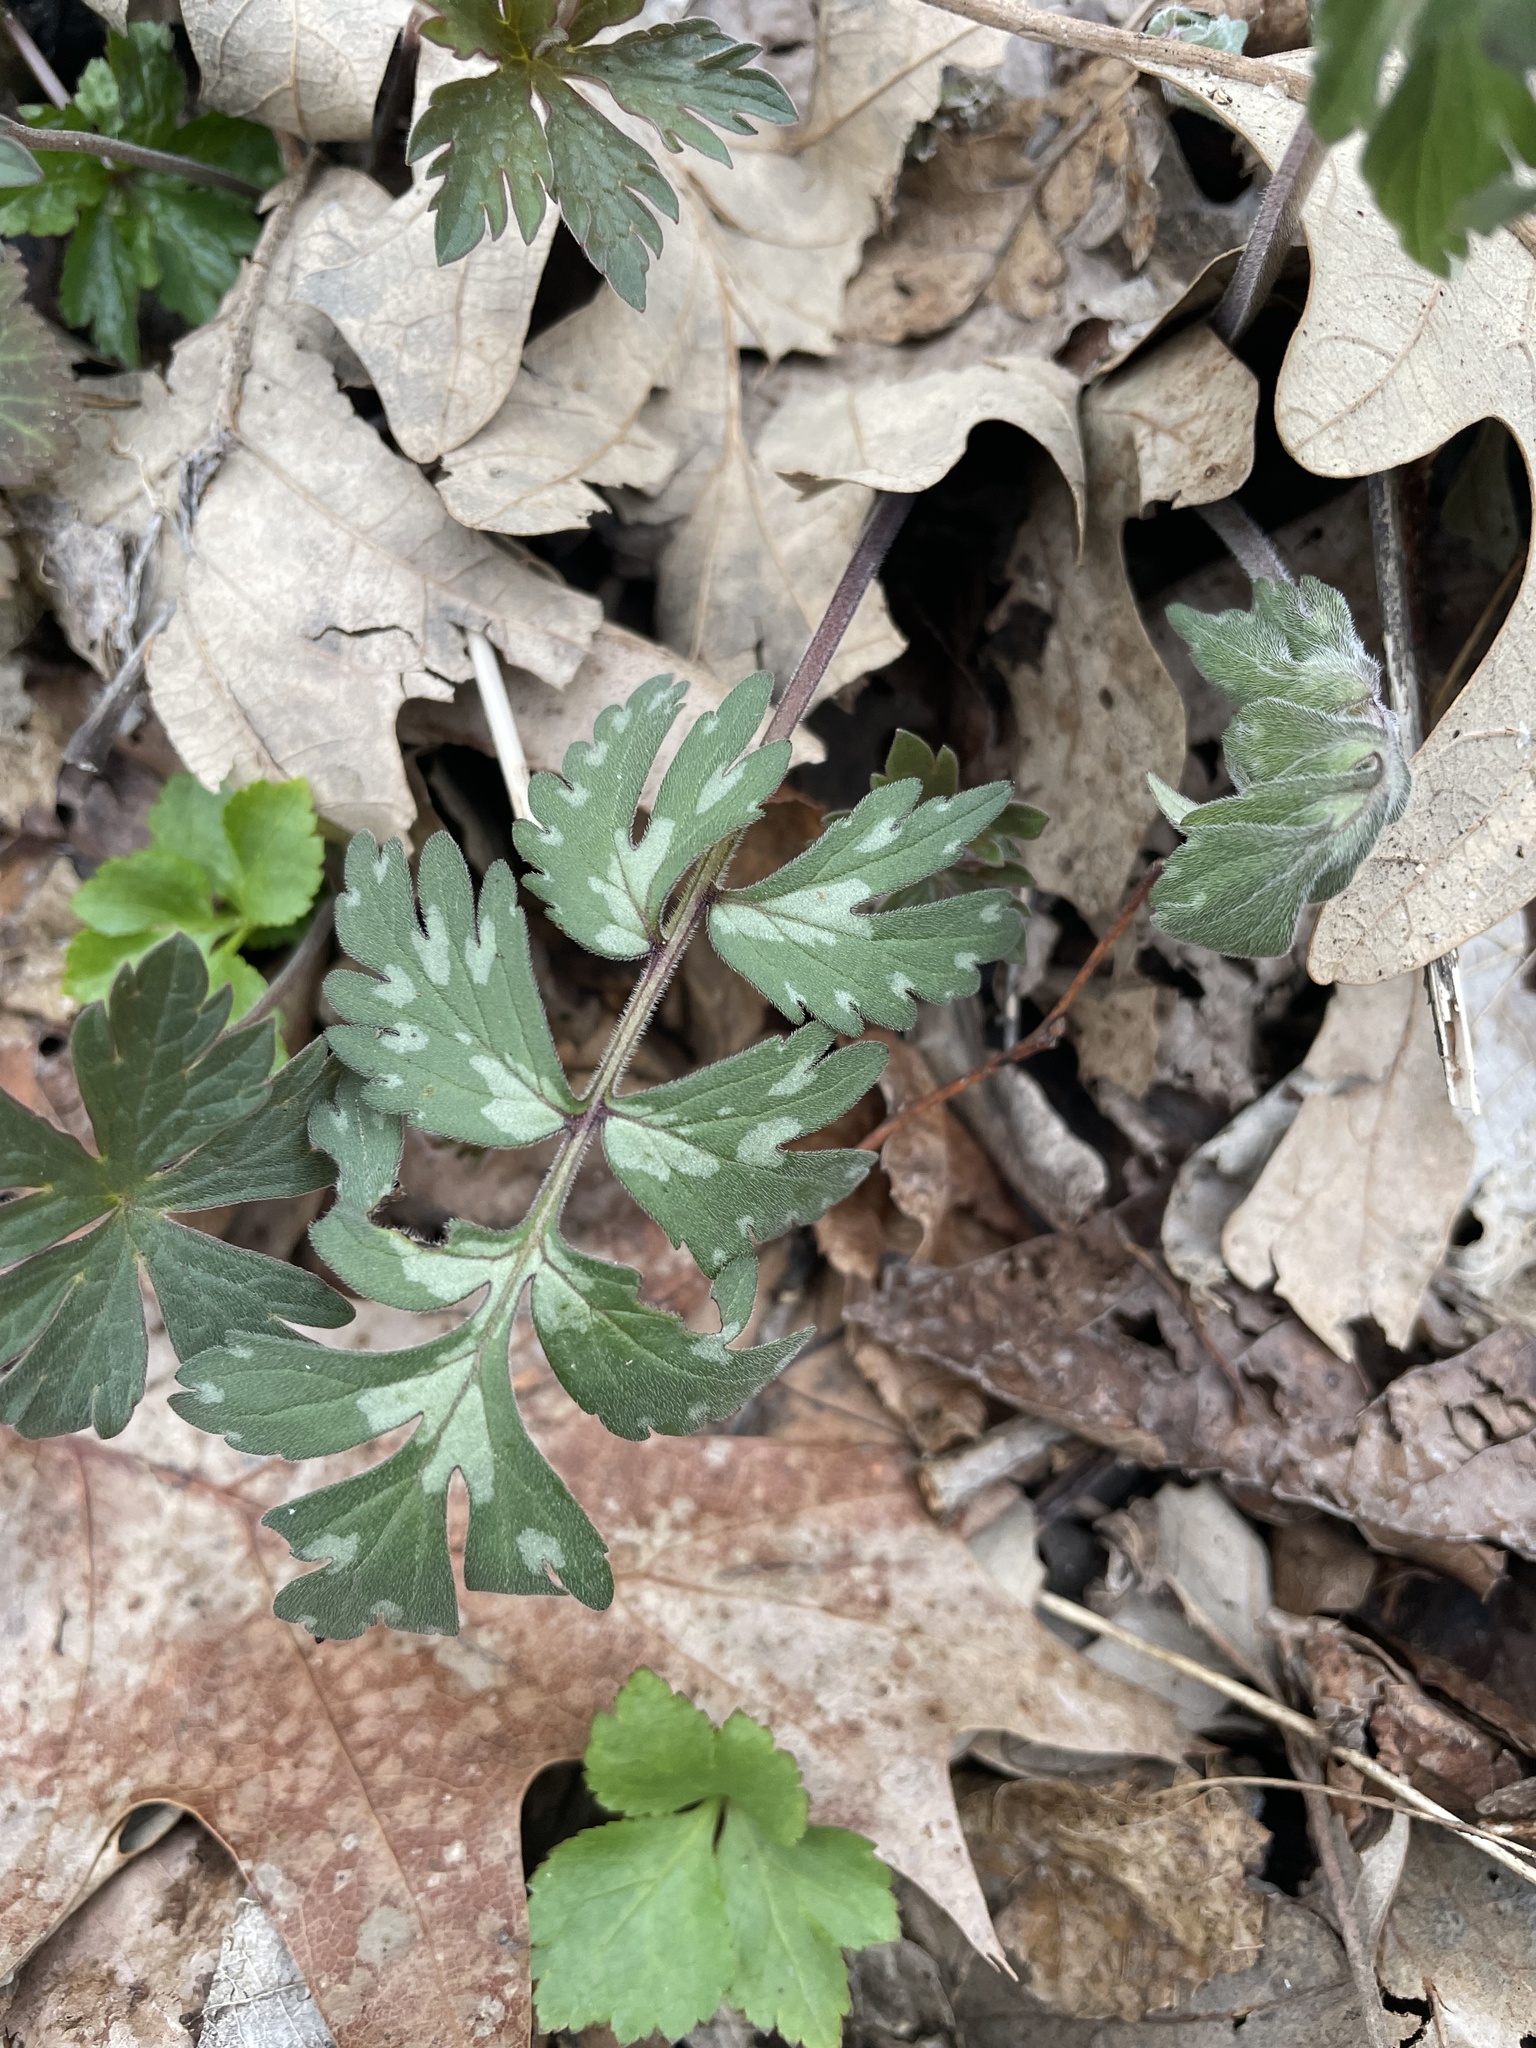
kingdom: Plantae
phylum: Tracheophyta
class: Magnoliopsida
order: Boraginales
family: Hydrophyllaceae
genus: Hydrophyllum
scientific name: Hydrophyllum virginianum
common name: Virginia waterleaf
